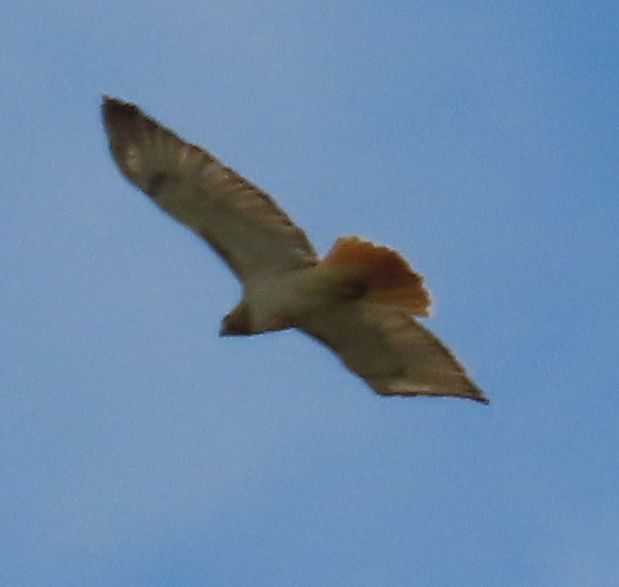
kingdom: Animalia
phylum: Chordata
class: Aves
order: Accipitriformes
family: Accipitridae
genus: Buteo
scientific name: Buteo jamaicensis
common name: Red-tailed hawk
